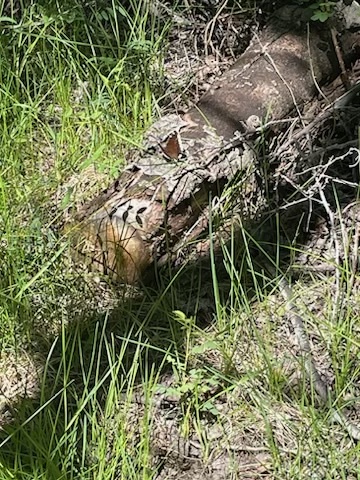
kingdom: Animalia
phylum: Arthropoda
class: Insecta
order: Lepidoptera
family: Nymphalidae
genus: Nymphalis
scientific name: Nymphalis antiopa
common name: Camberwell beauty
